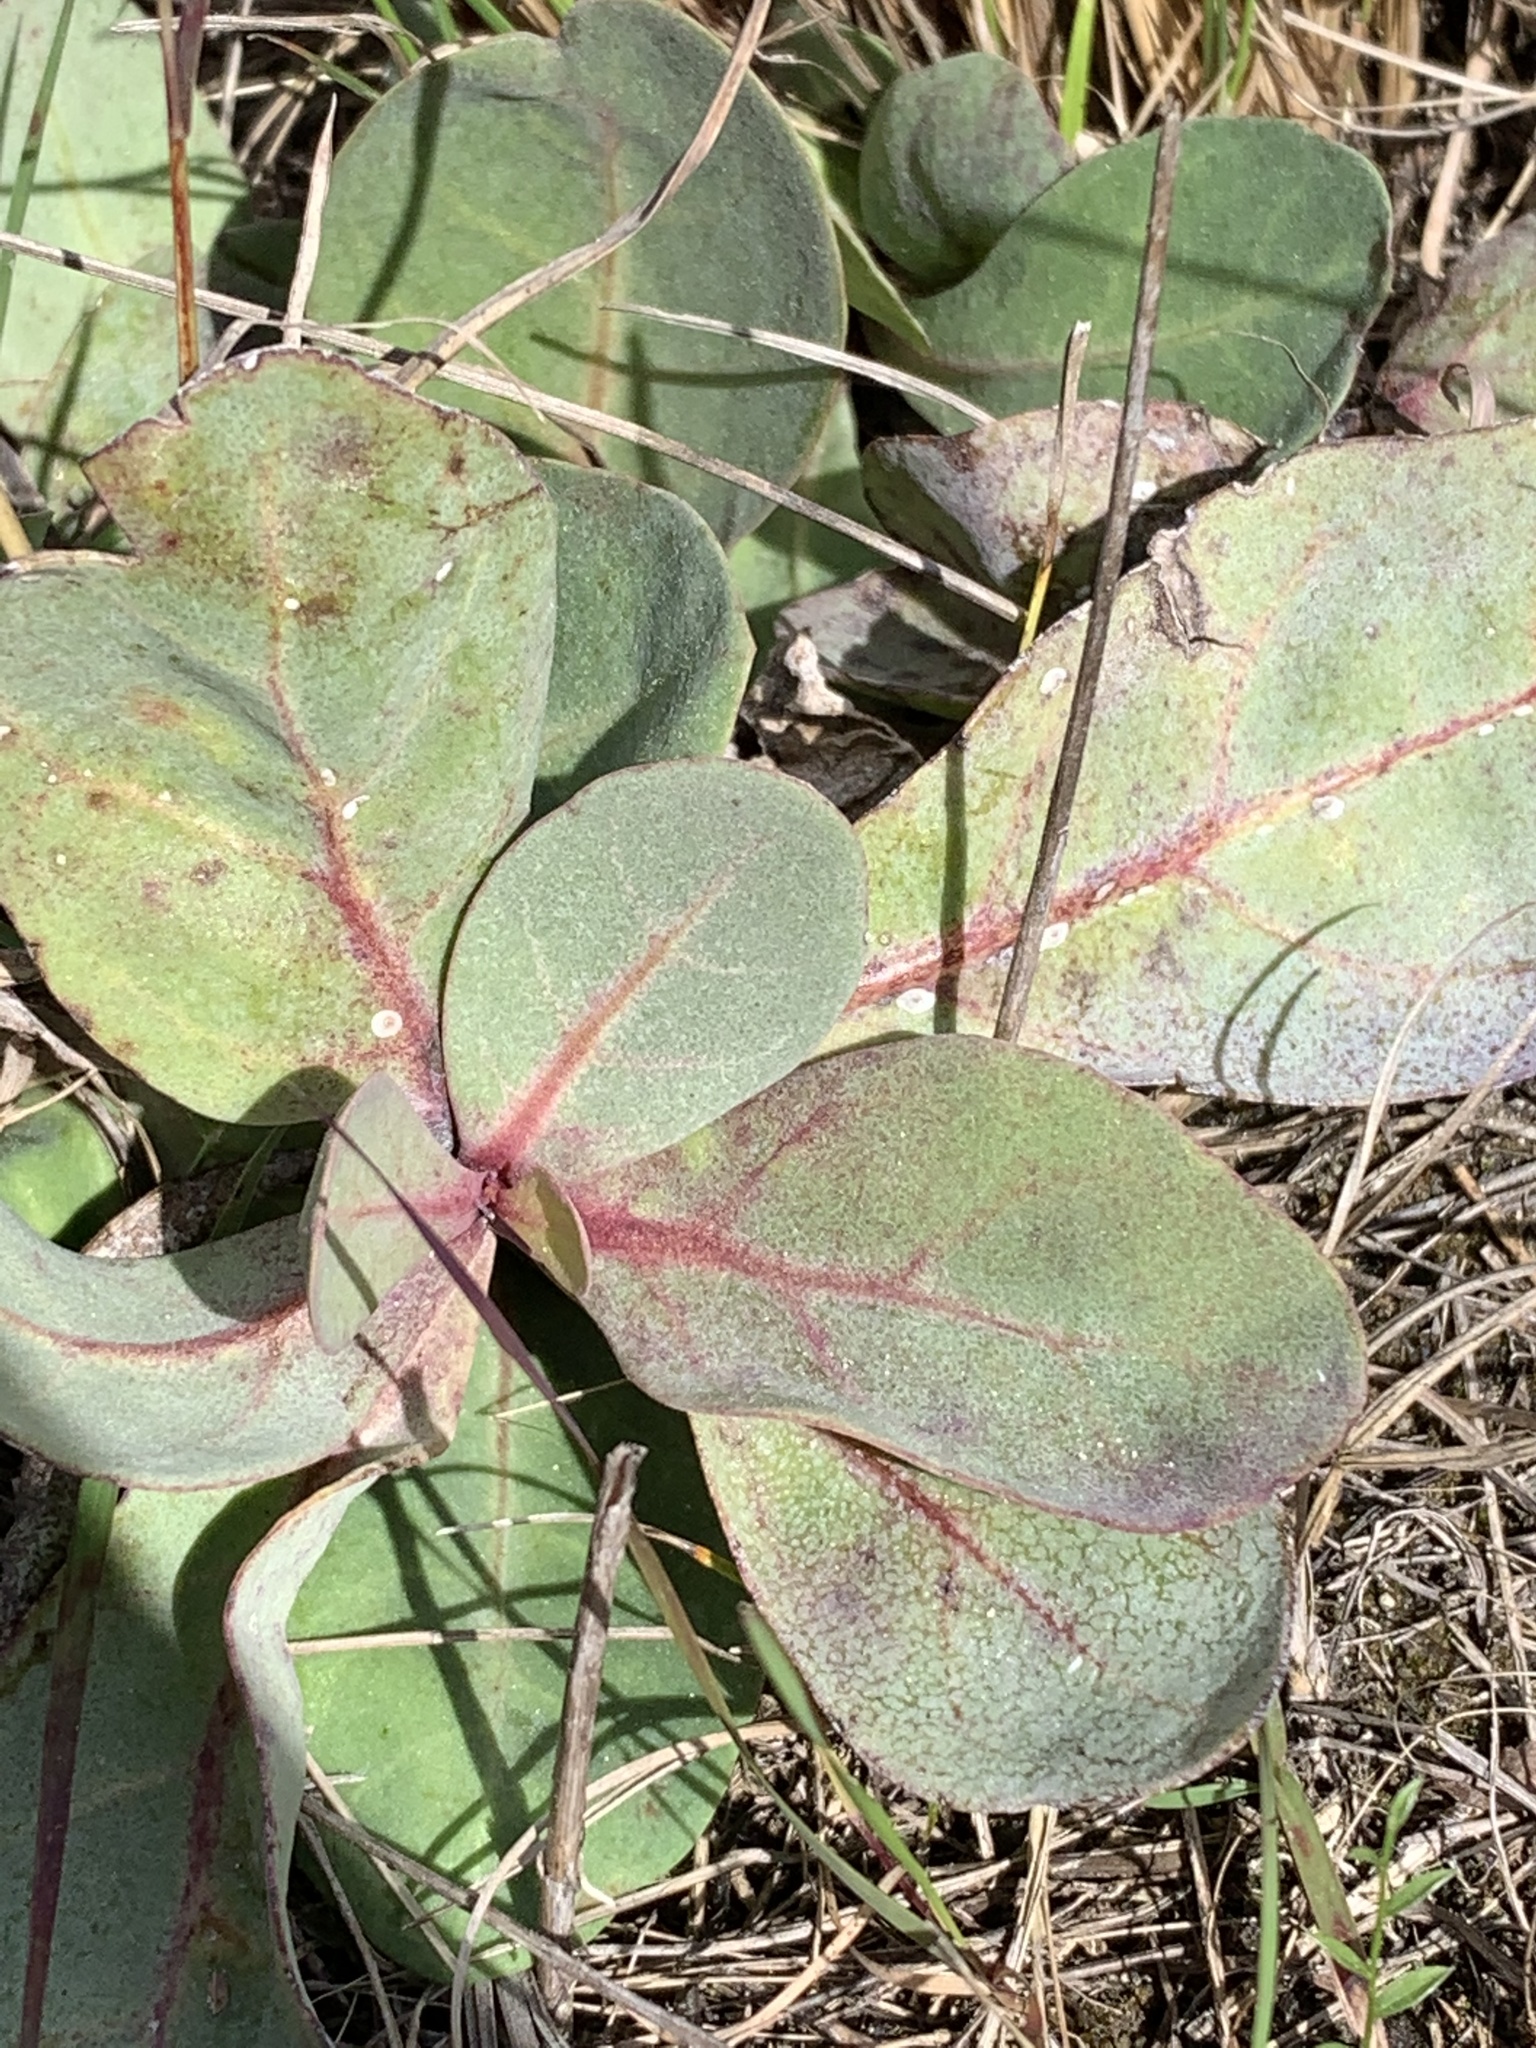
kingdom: Plantae
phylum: Tracheophyta
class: Magnoliopsida
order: Ericales
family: Primulaceae
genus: Samolus
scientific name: Samolus ebracteatus
